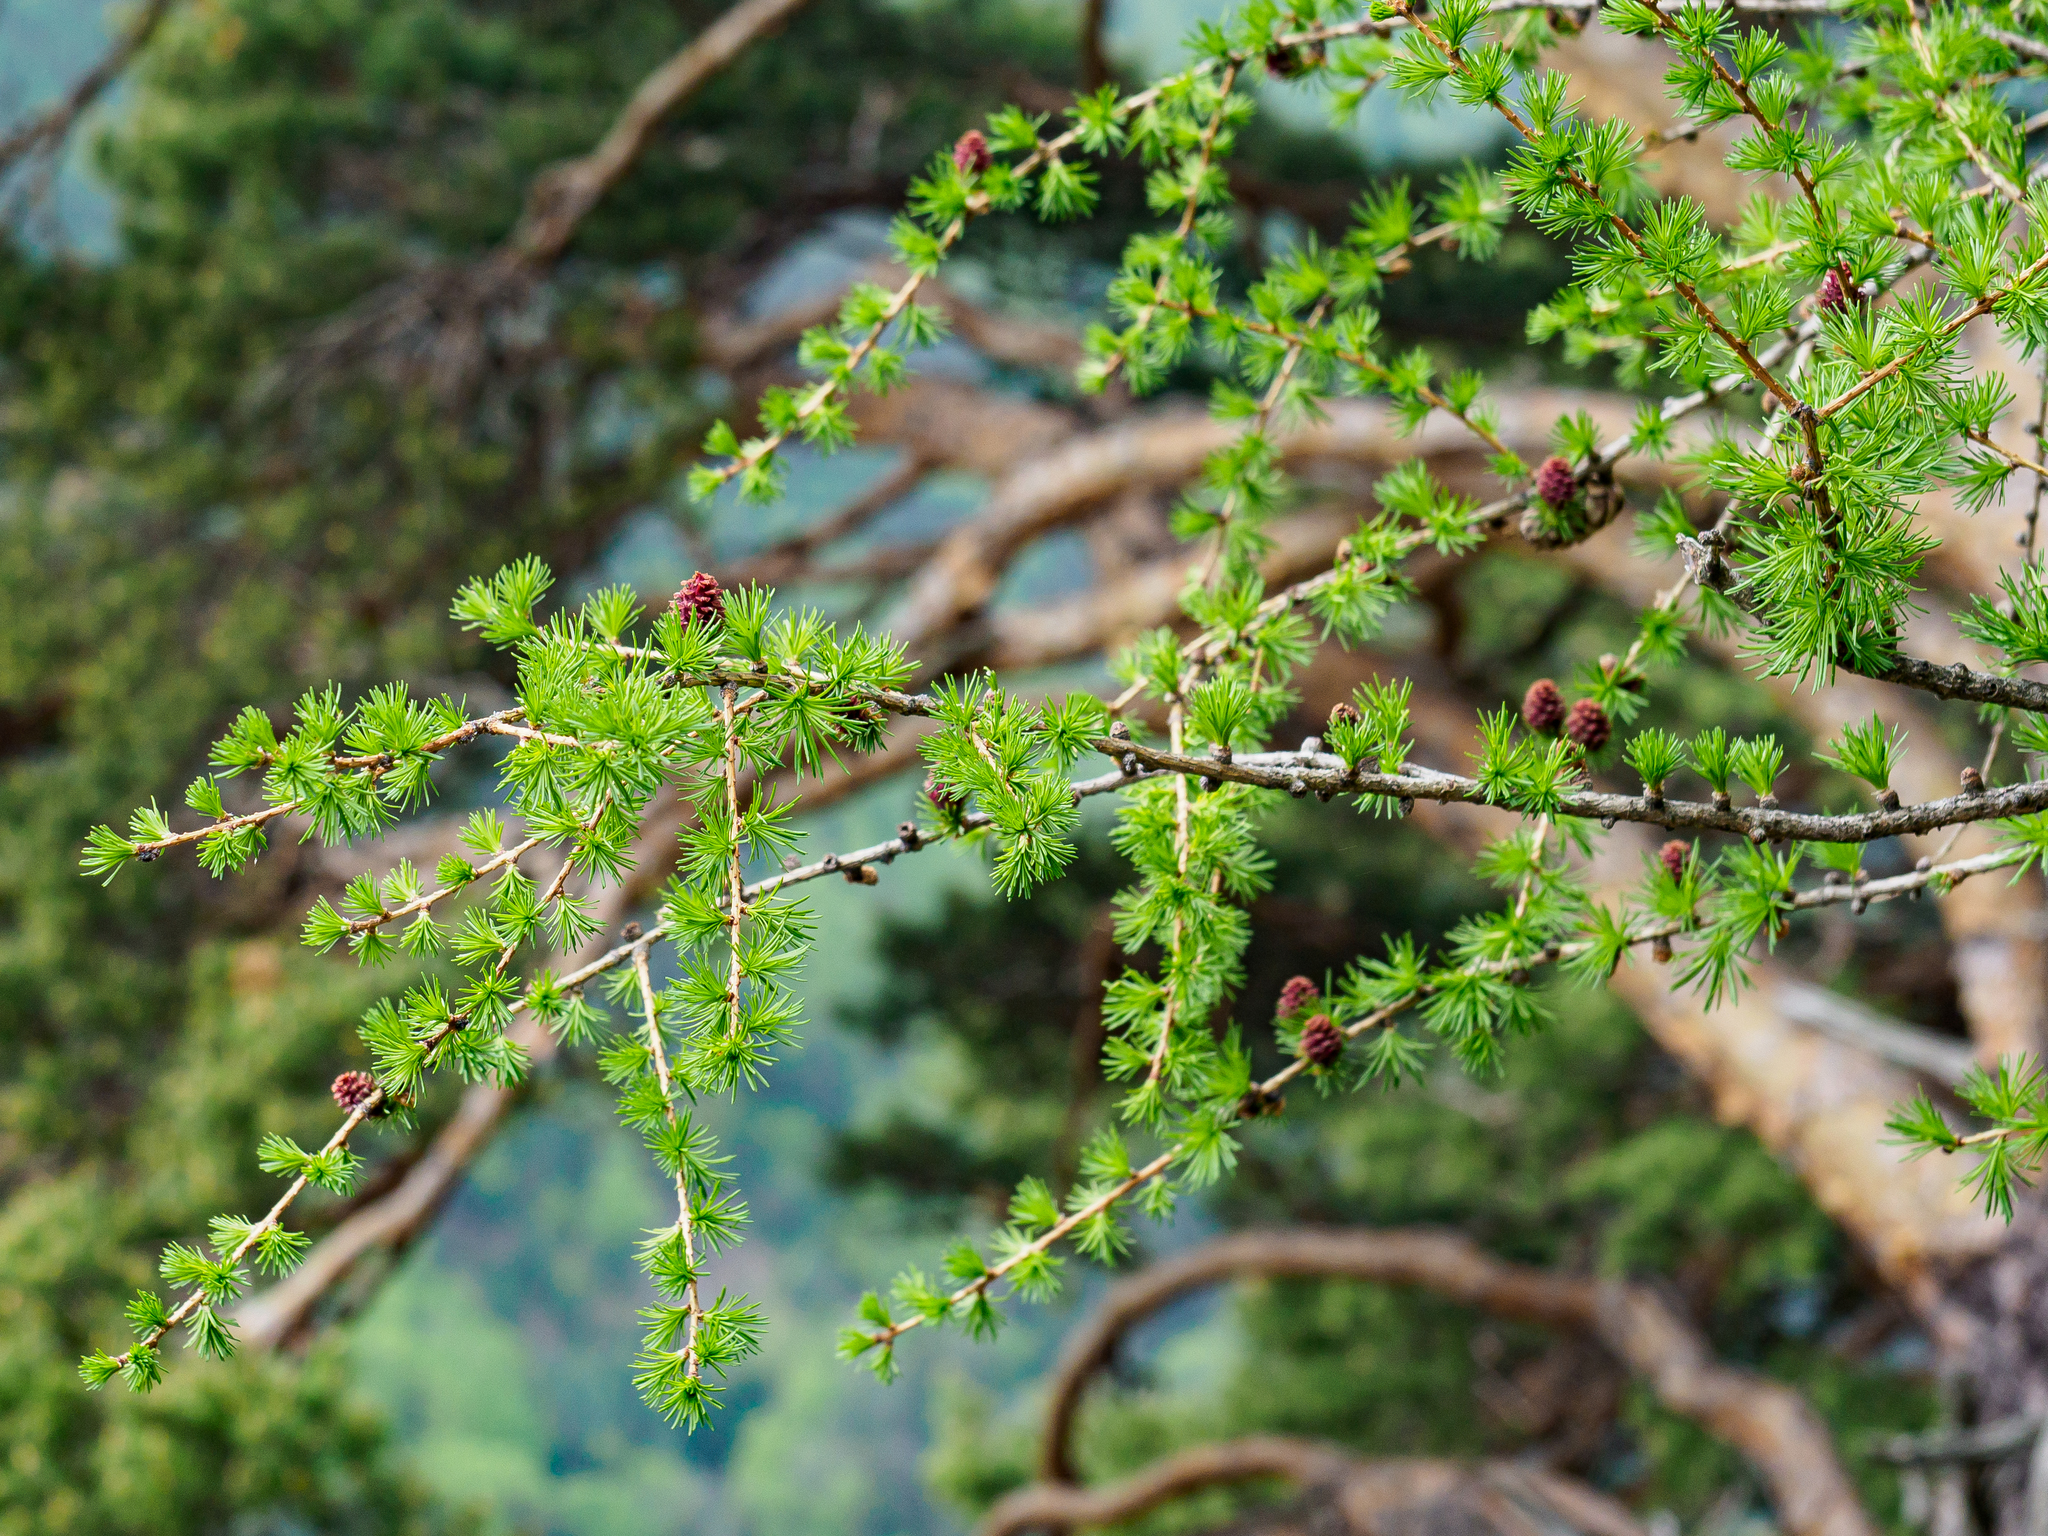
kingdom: Plantae
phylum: Tracheophyta
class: Pinopsida
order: Pinales
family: Pinaceae
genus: Larix
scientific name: Larix decidua
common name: European larch
